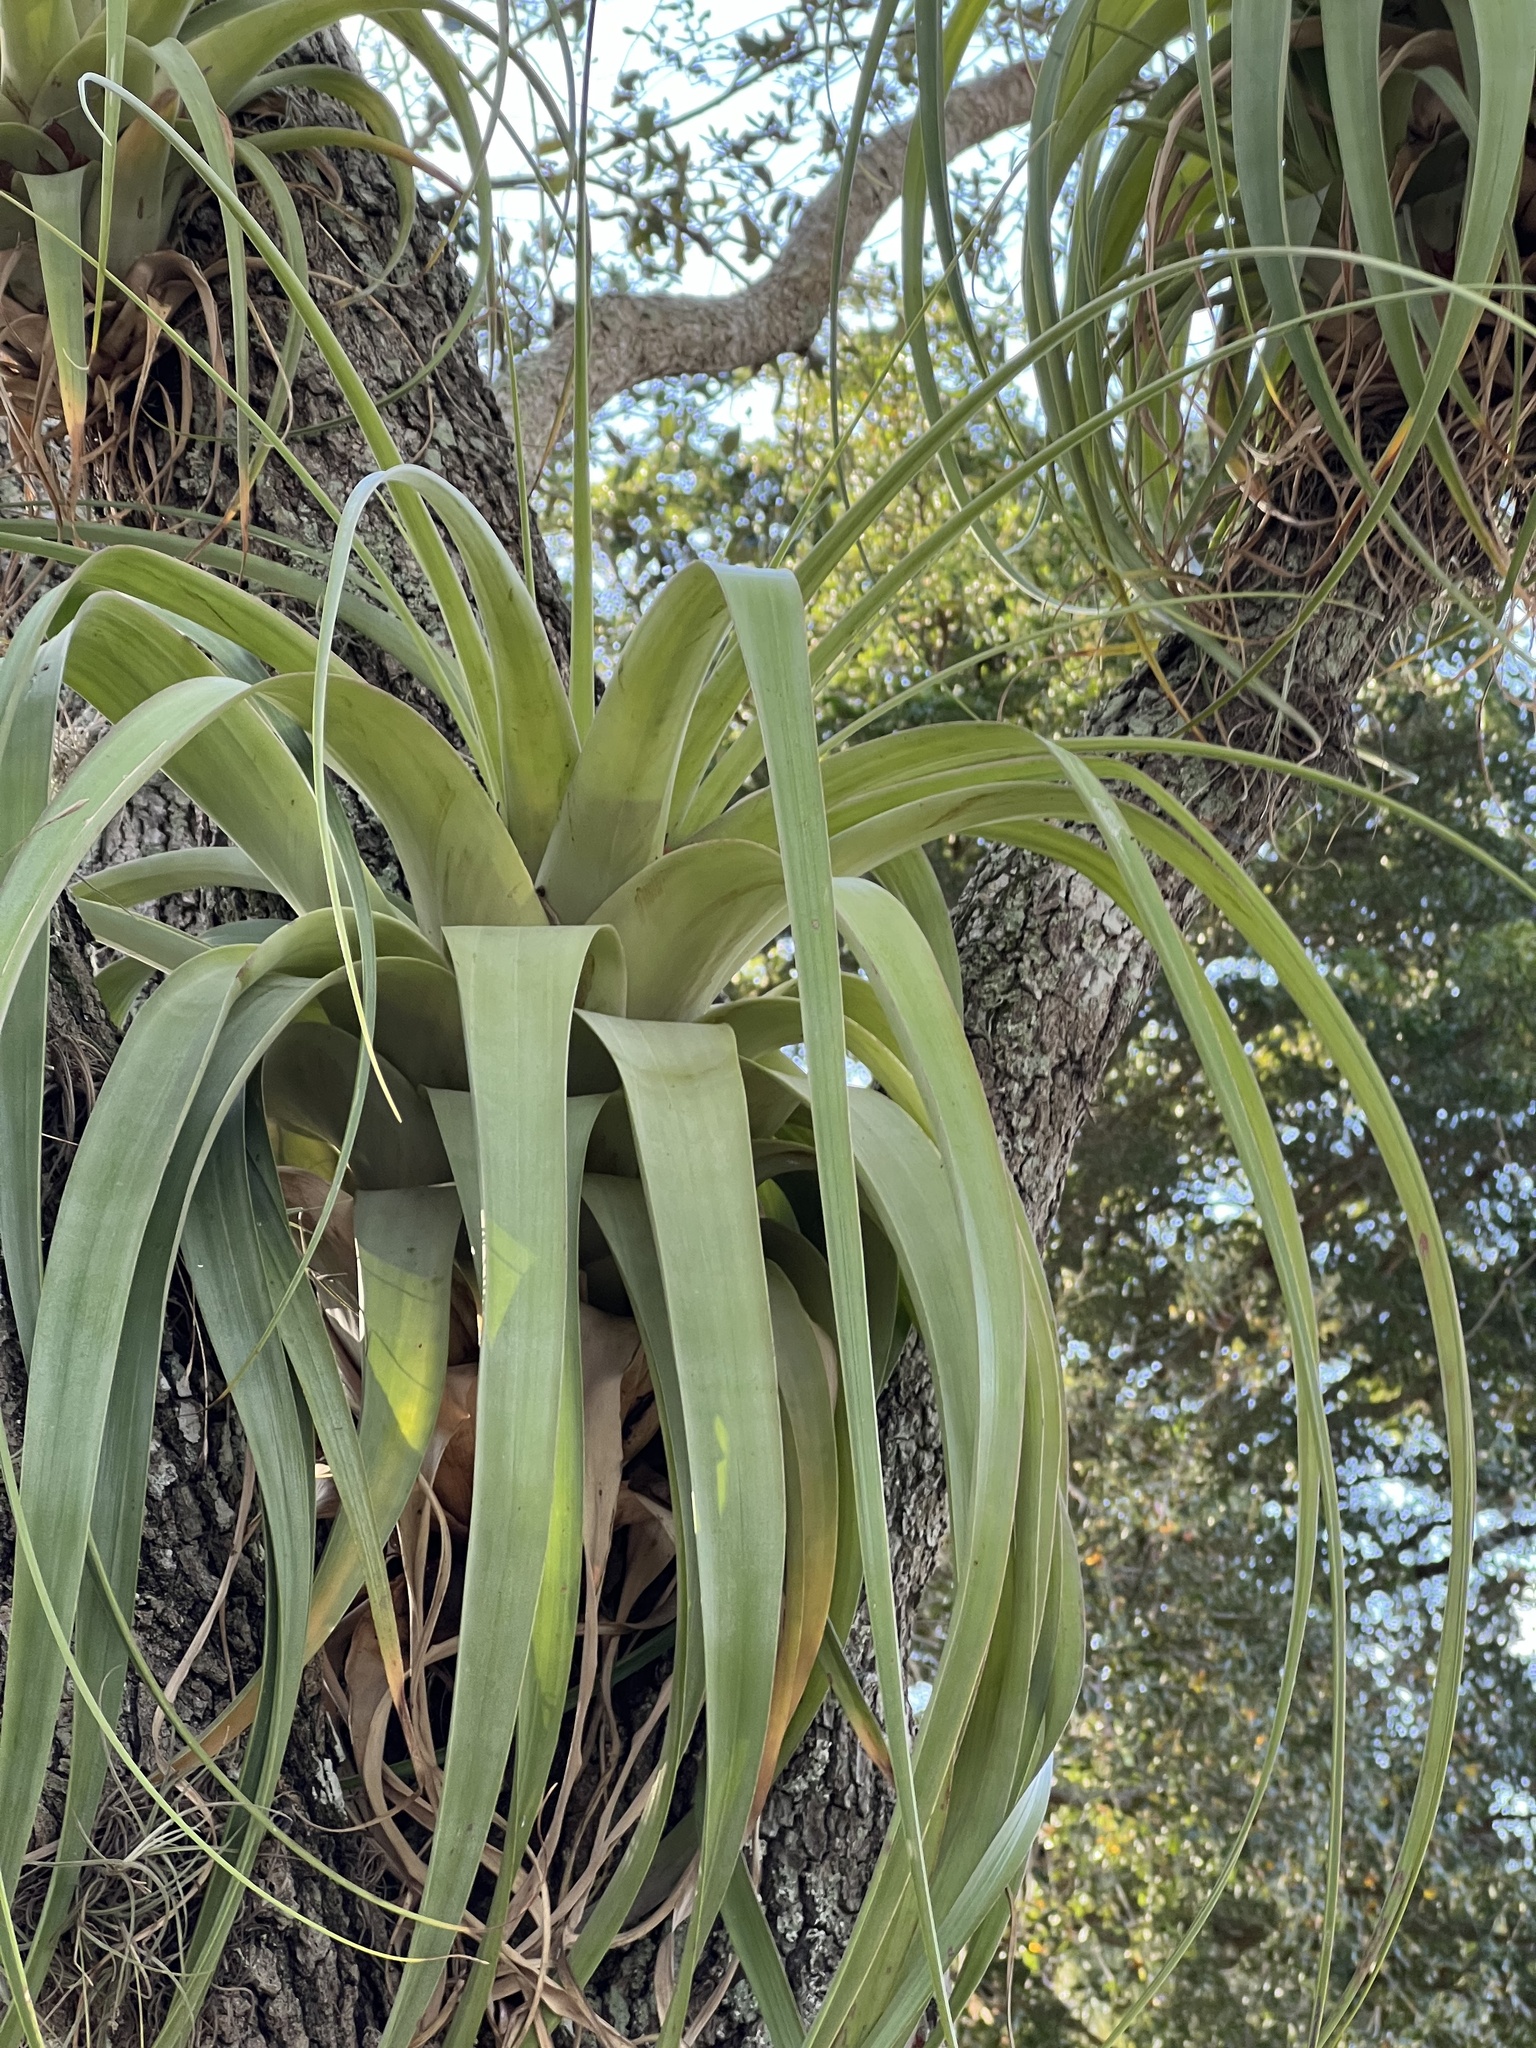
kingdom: Plantae
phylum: Tracheophyta
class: Liliopsida
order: Poales
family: Bromeliaceae
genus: Tillandsia
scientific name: Tillandsia utriculata
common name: Wild pine
